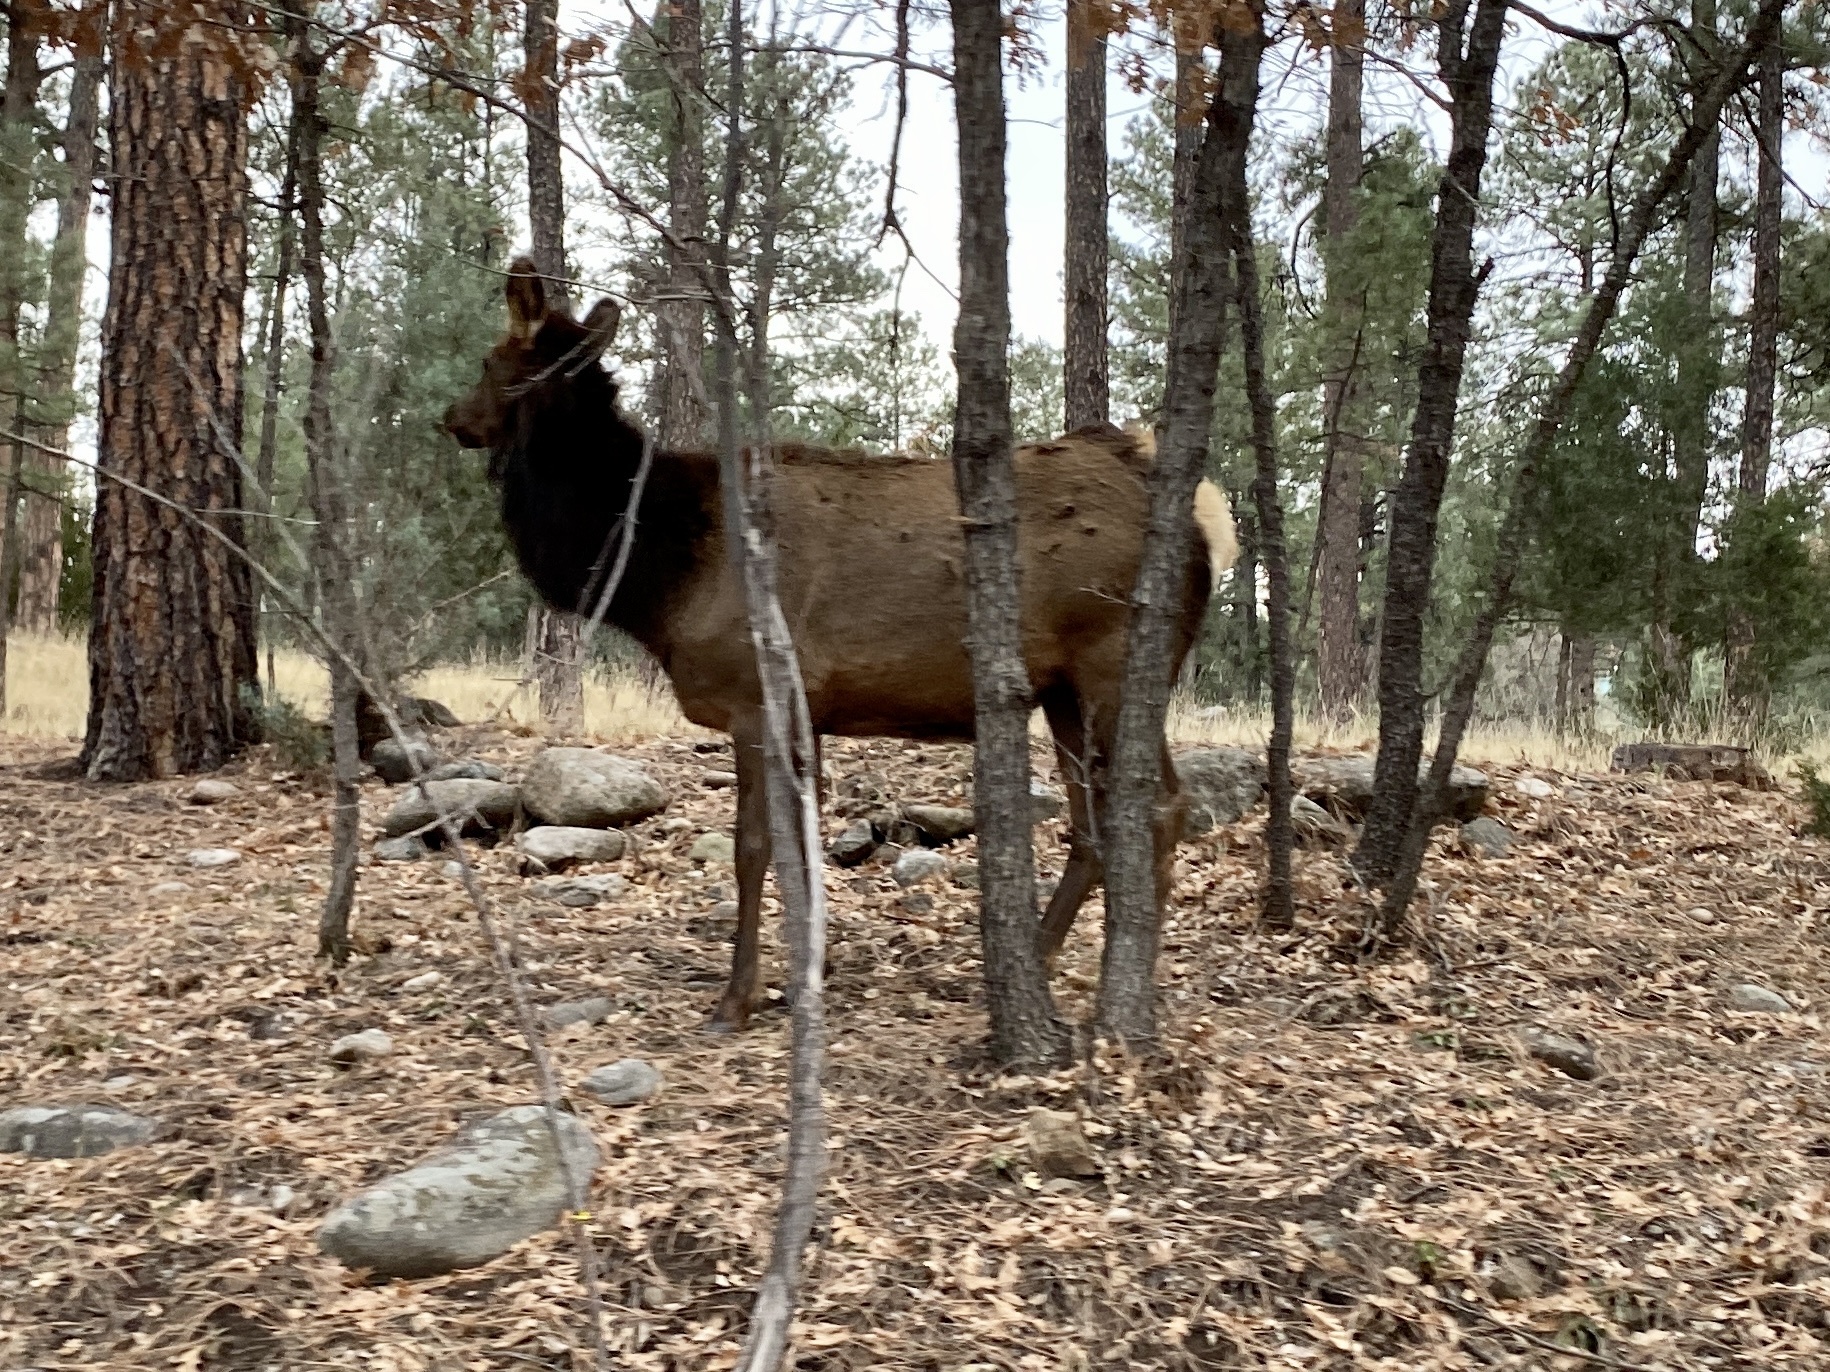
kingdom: Animalia
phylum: Chordata
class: Mammalia
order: Artiodactyla
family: Cervidae
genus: Cervus
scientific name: Cervus elaphus
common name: Red deer
